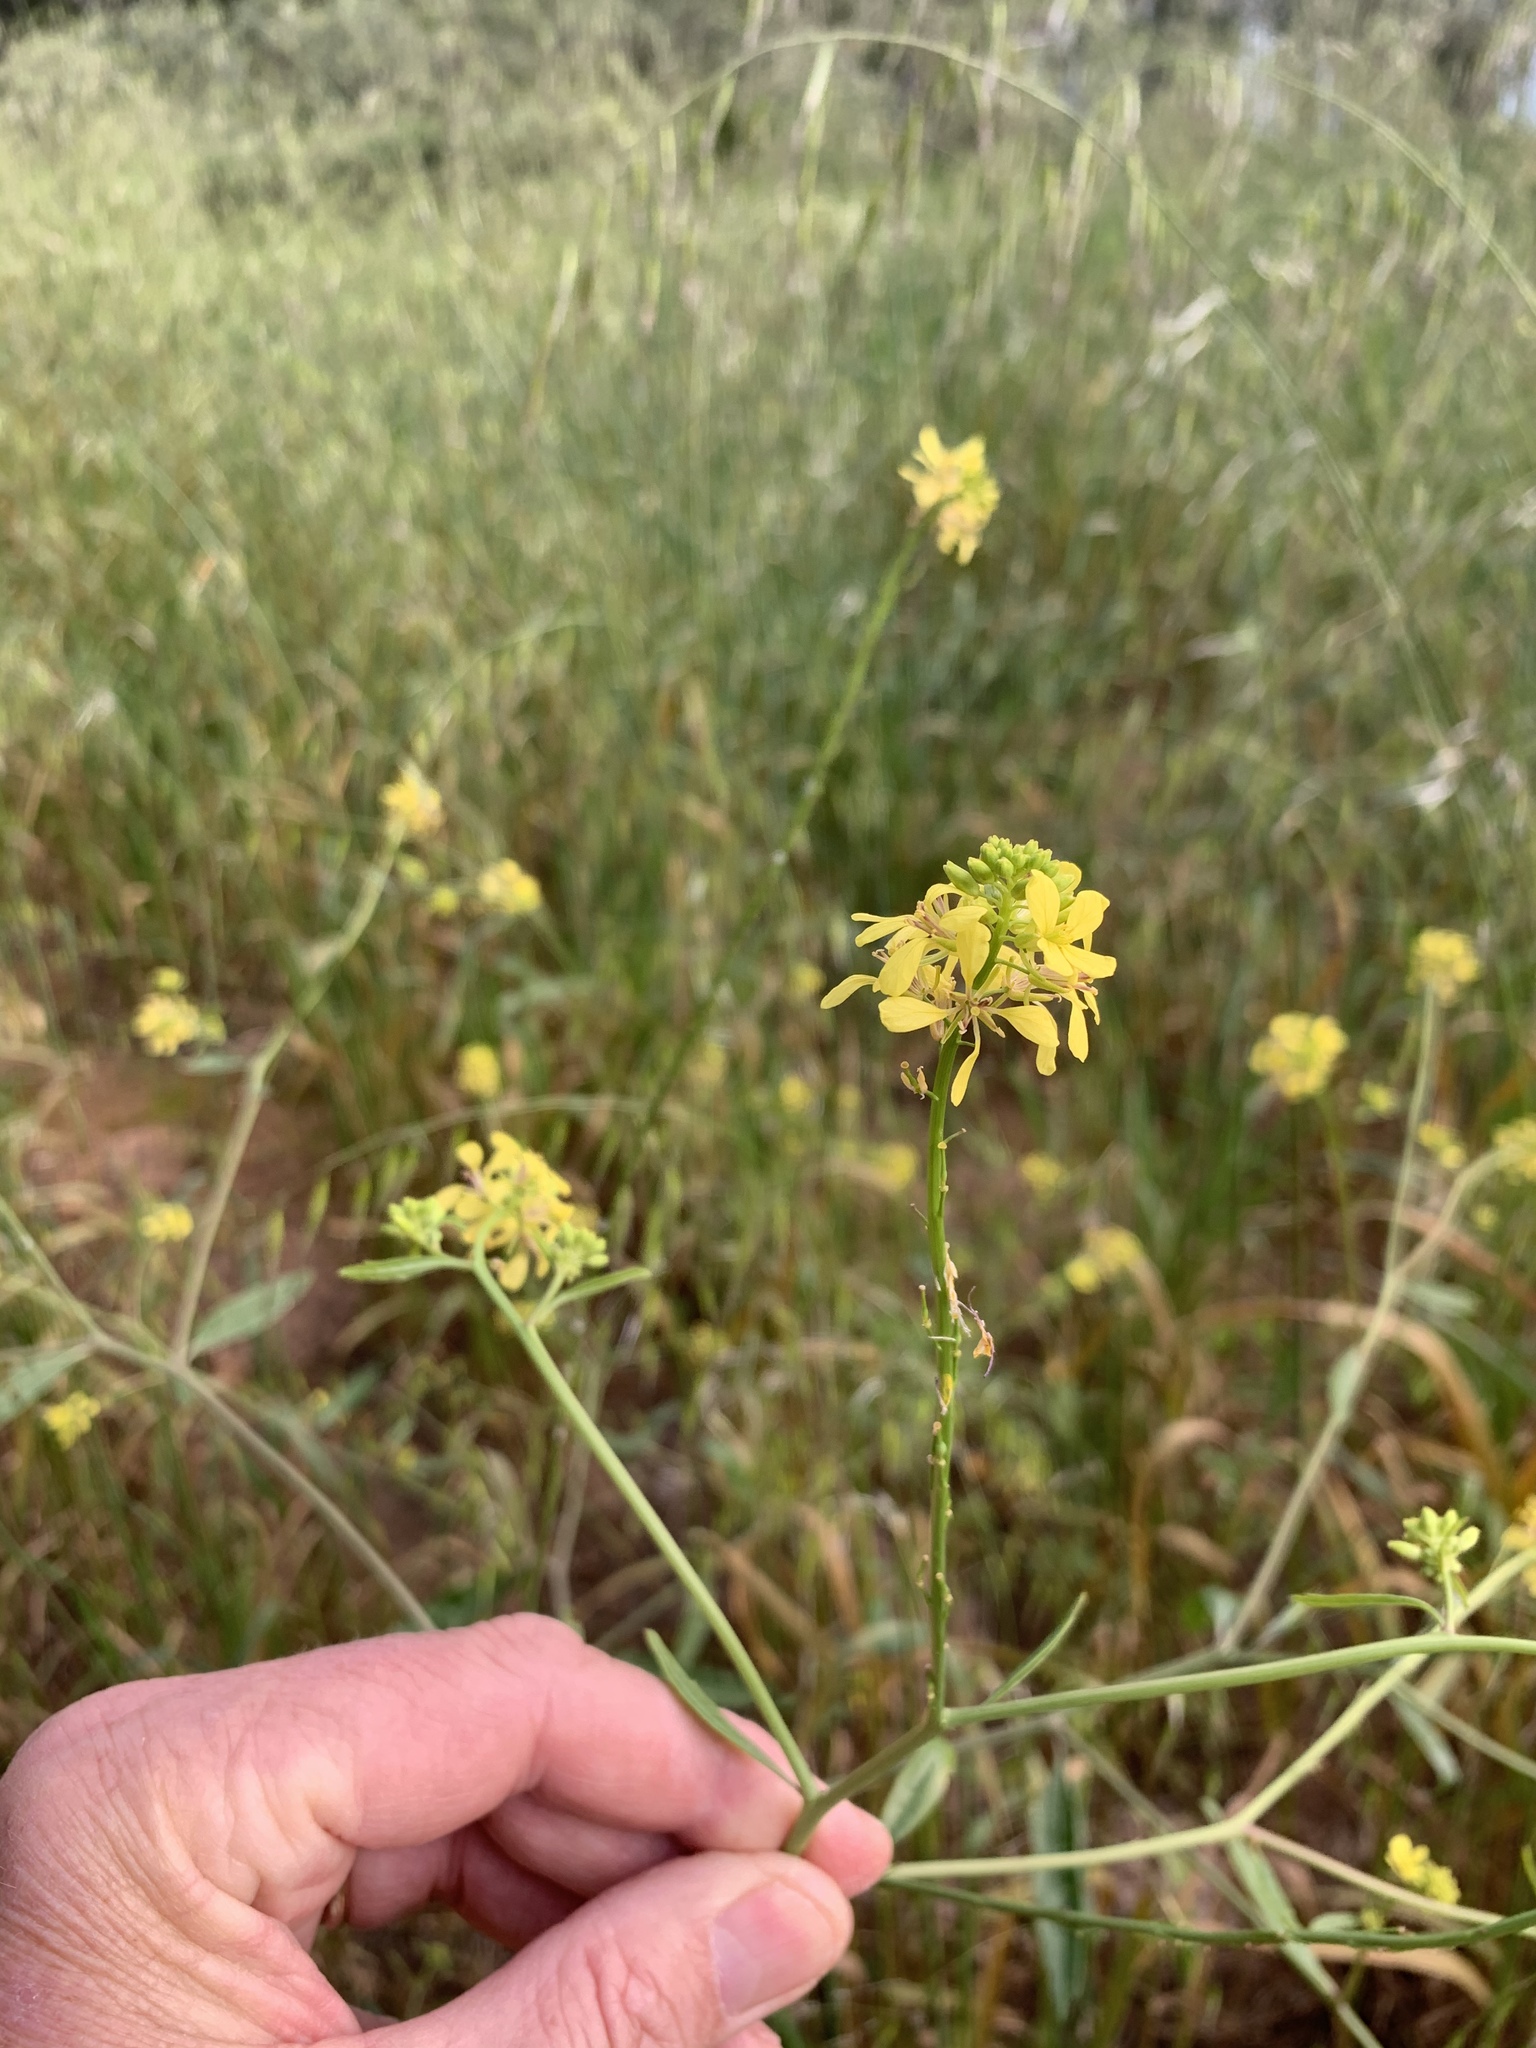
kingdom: Plantae
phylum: Tracheophyta
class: Magnoliopsida
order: Brassicales
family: Brassicaceae
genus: Rapistrum
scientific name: Rapistrum rugosum
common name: Annual bastardcabbage
